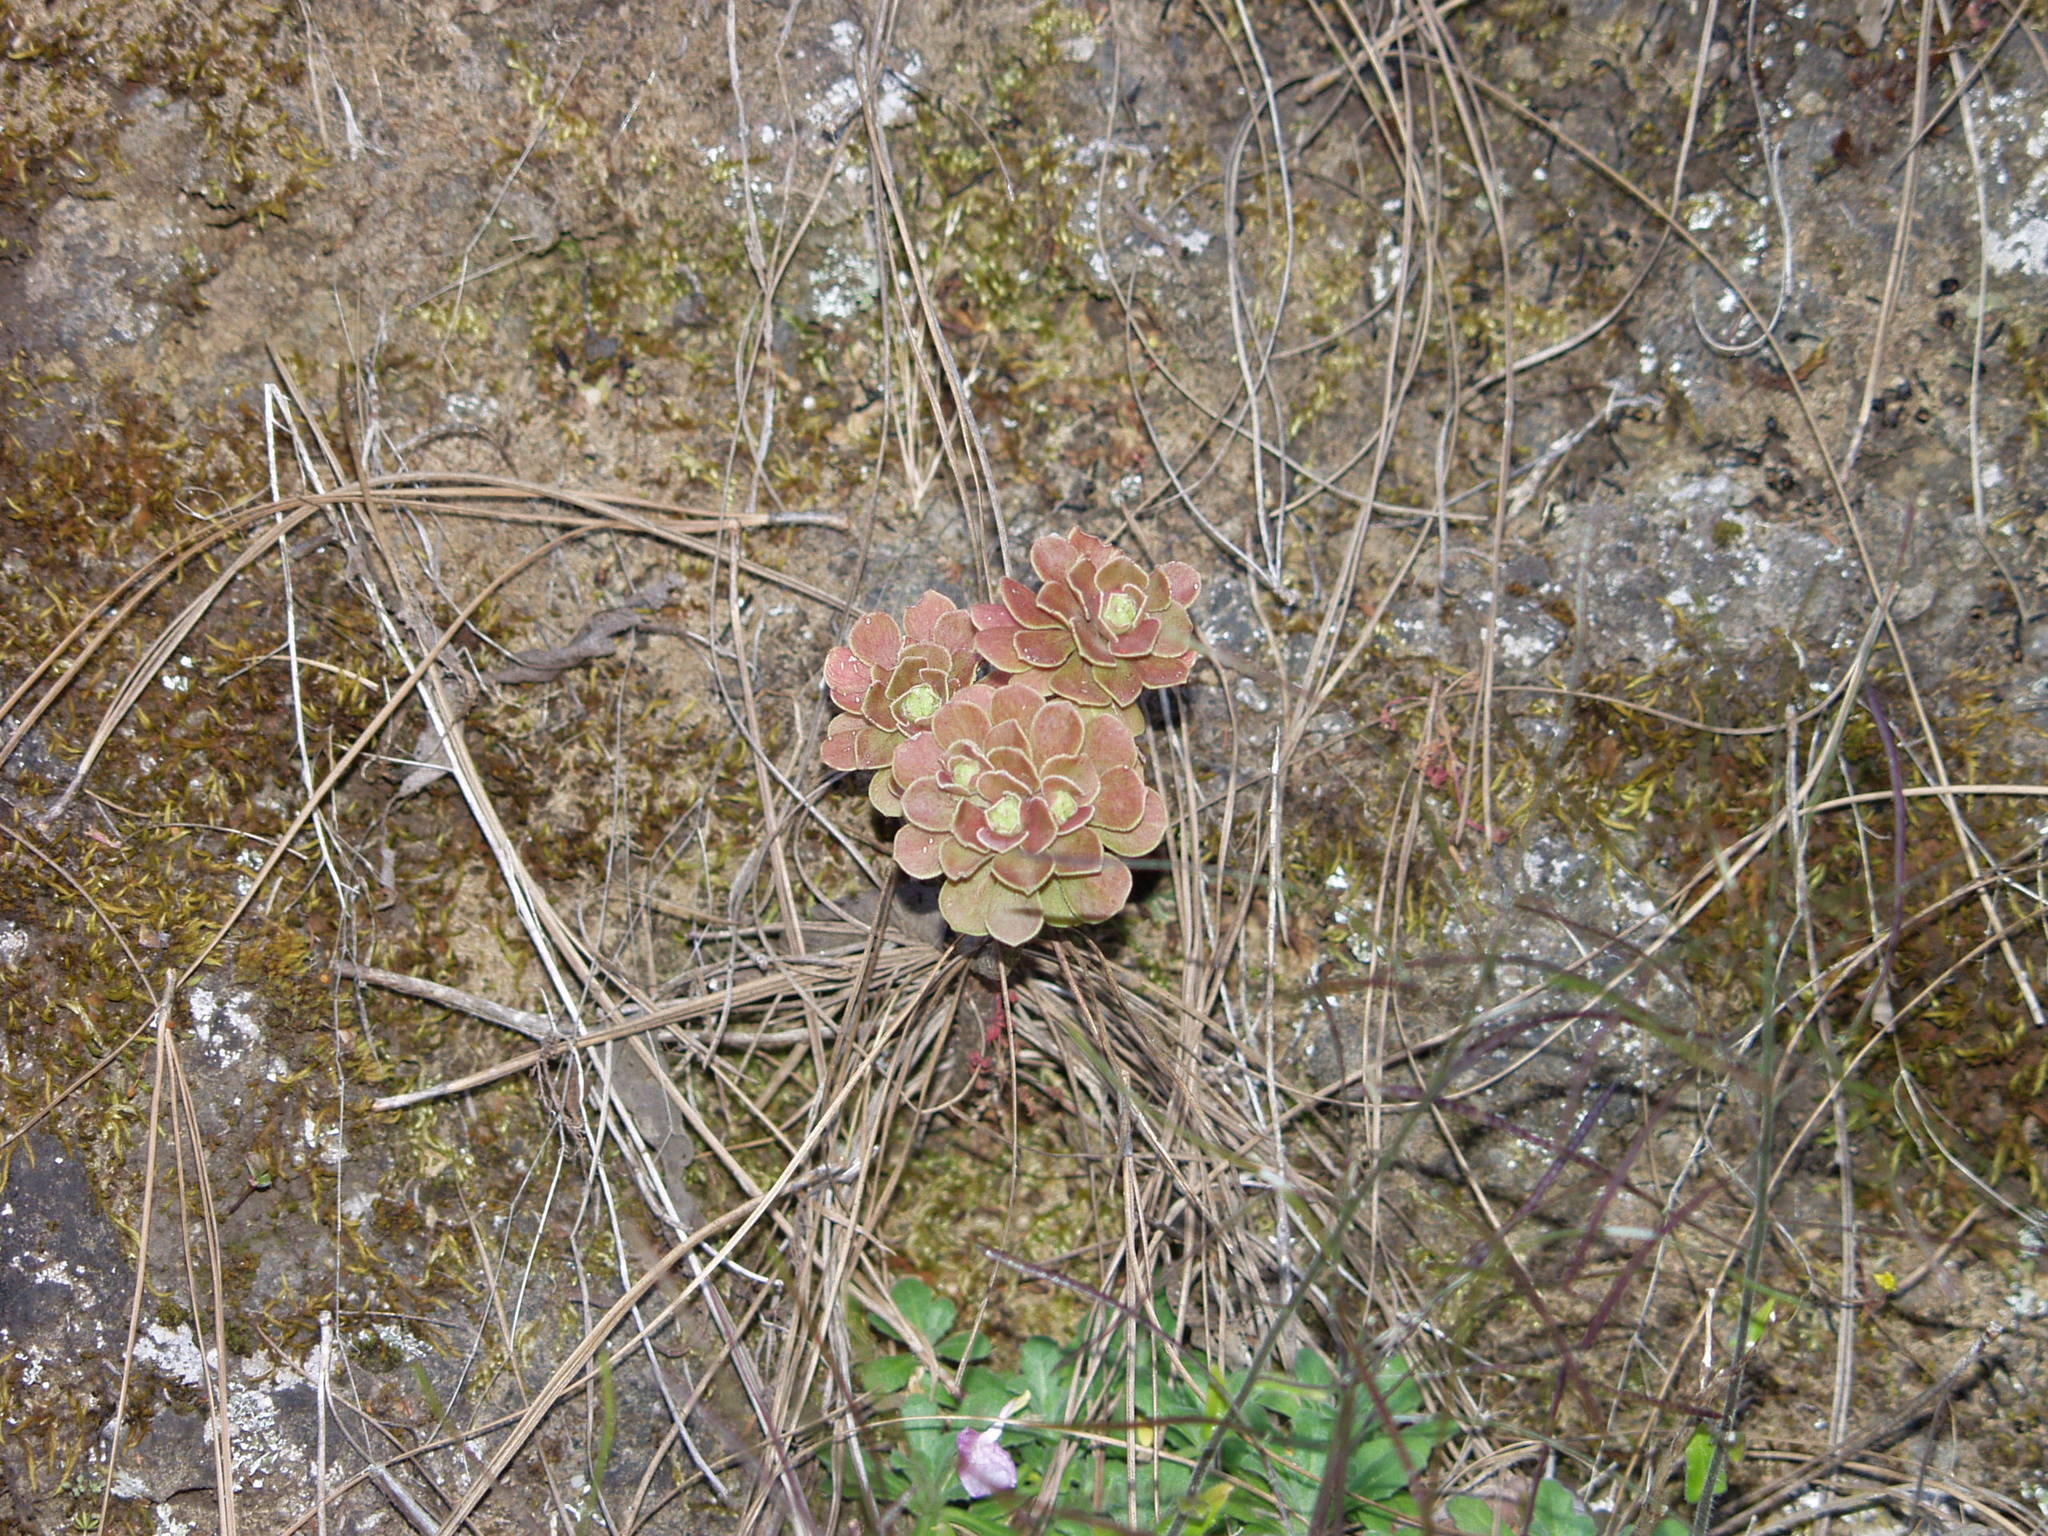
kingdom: Plantae
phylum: Tracheophyta
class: Magnoliopsida
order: Saxifragales
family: Crassulaceae
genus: Aeonium
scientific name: Aeonium spathulatum
